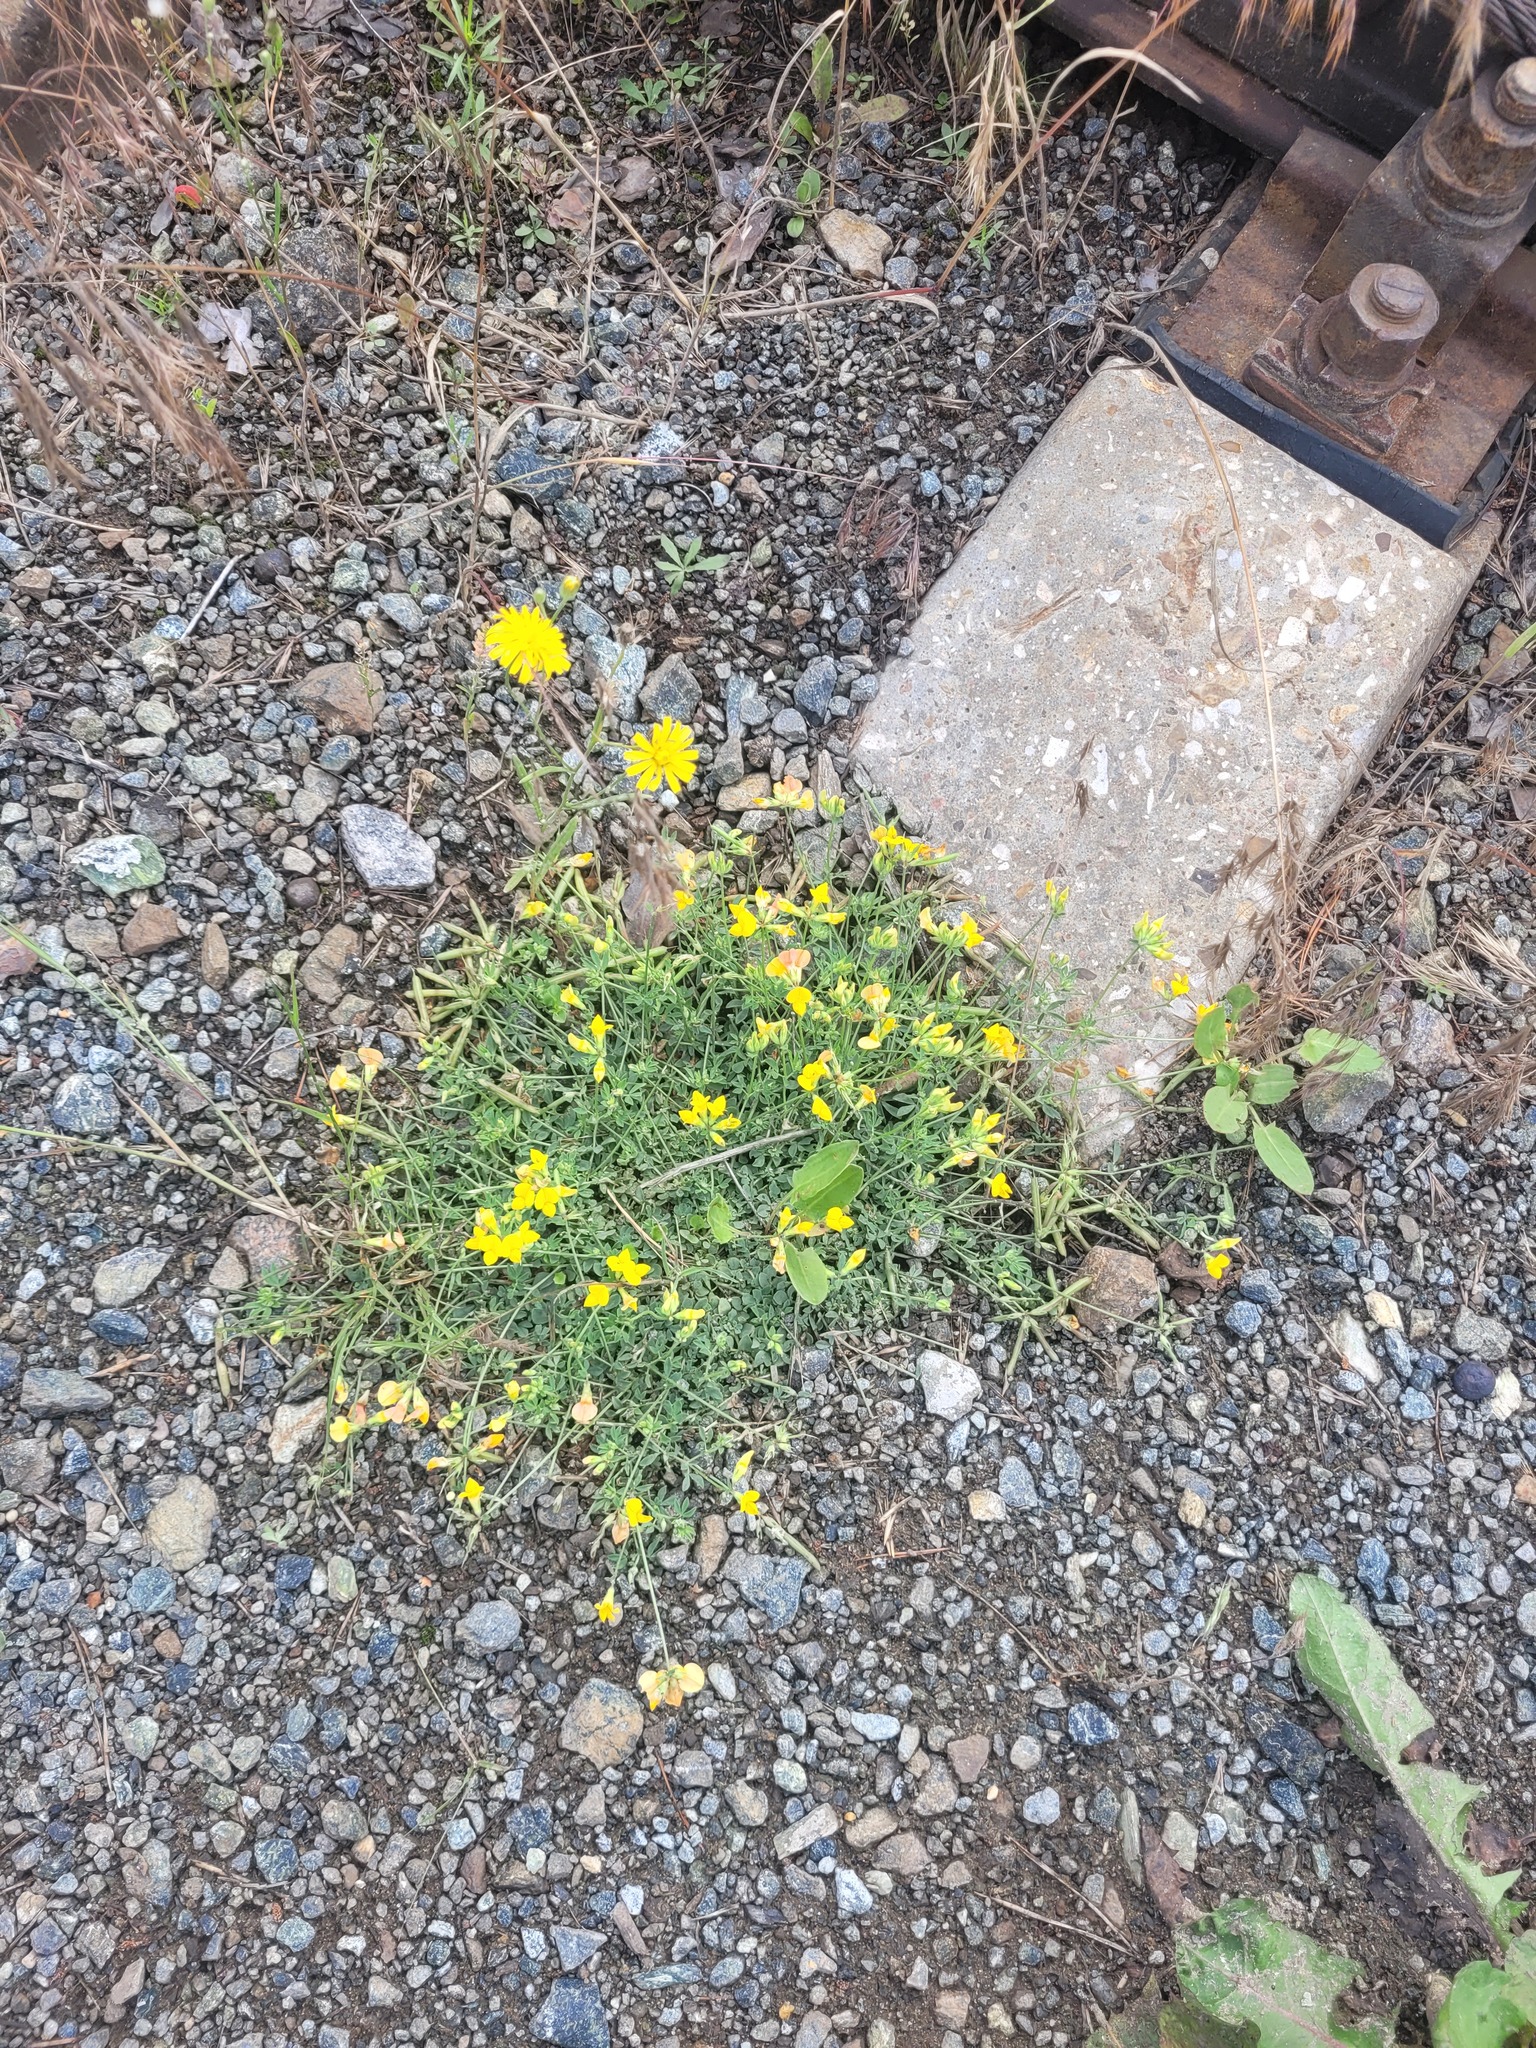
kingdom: Plantae
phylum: Tracheophyta
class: Magnoliopsida
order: Fabales
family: Fabaceae
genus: Lotus
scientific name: Lotus corniculatus
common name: Common bird's-foot-trefoil
